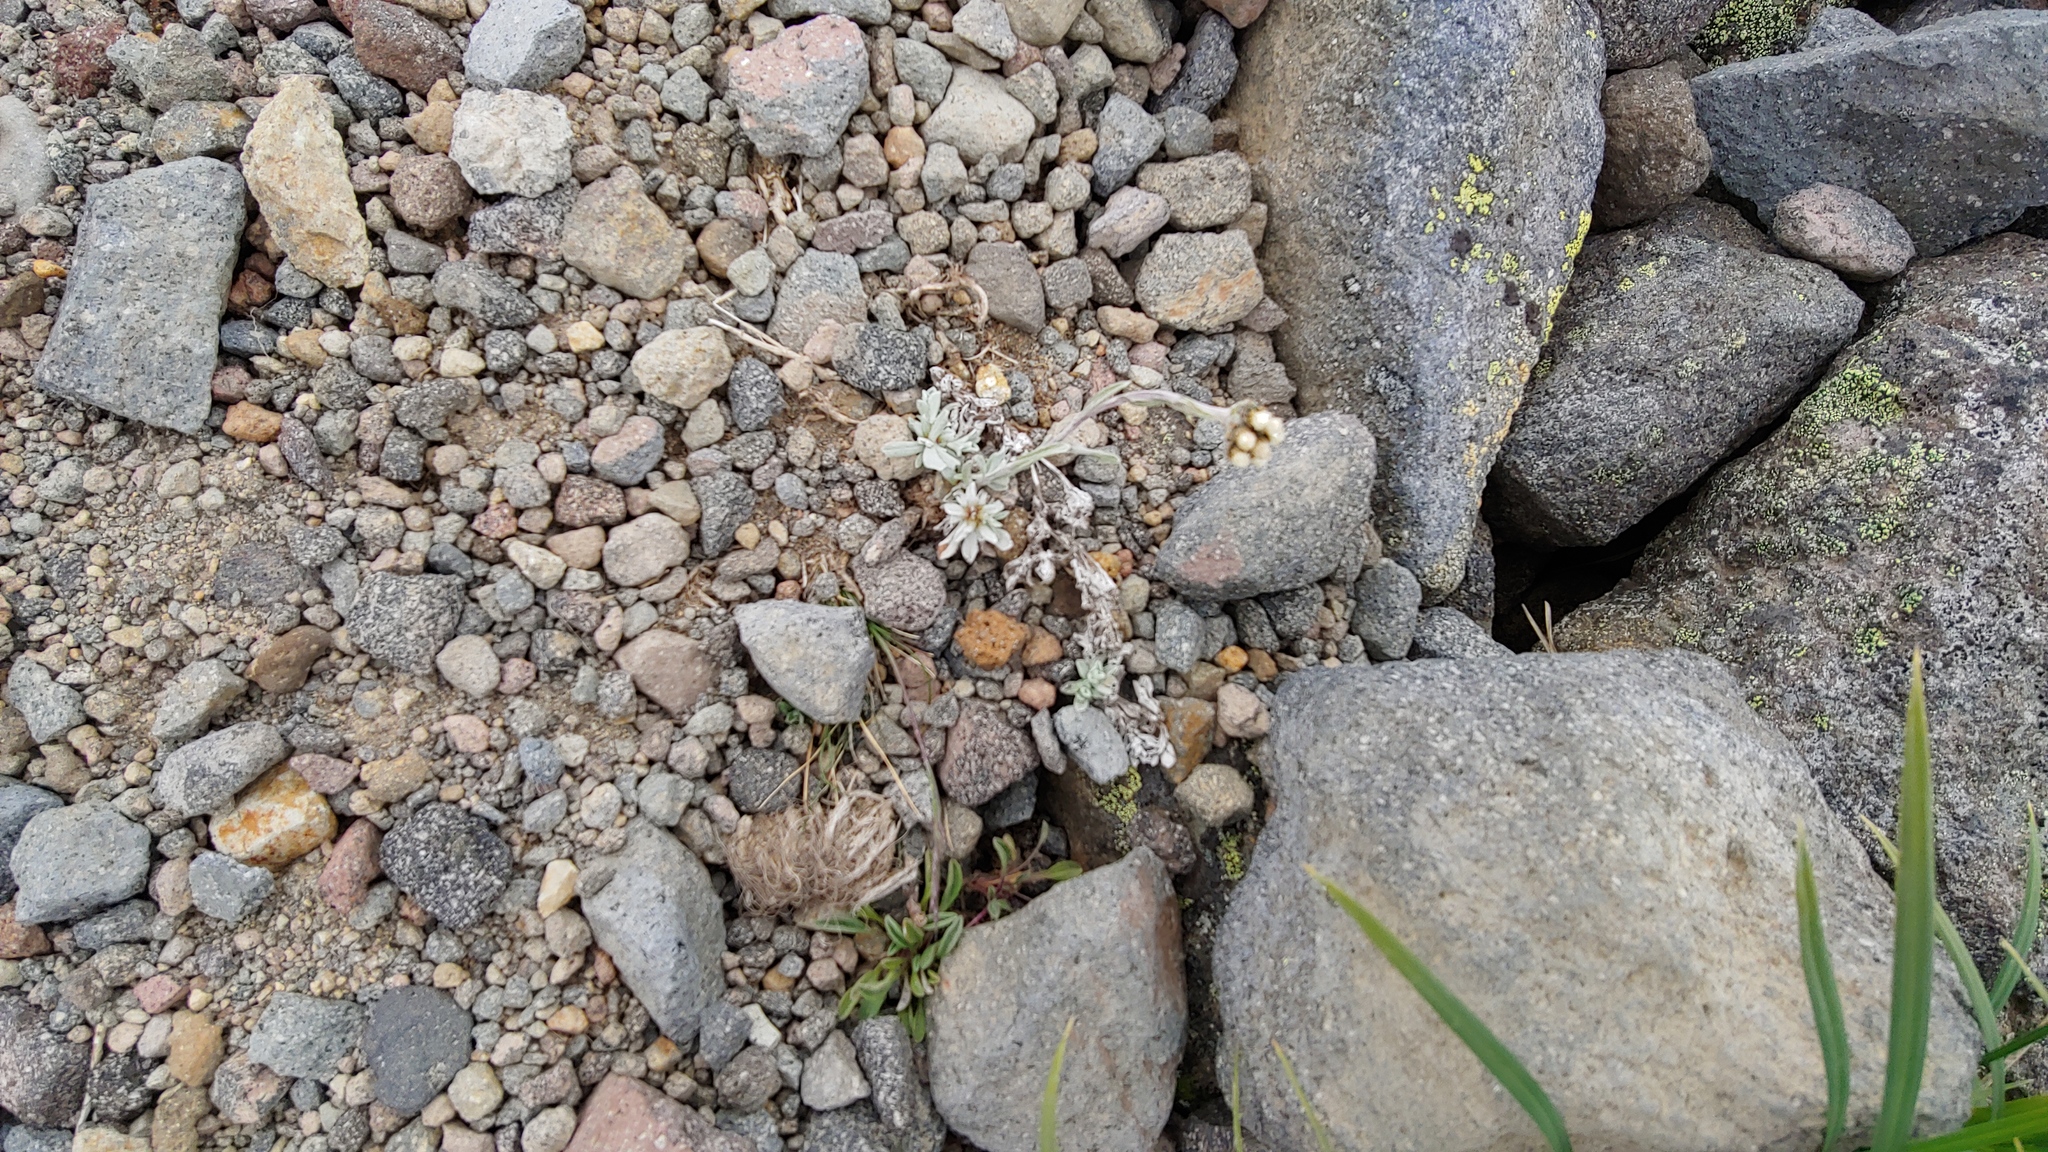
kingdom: Plantae
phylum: Tracheophyta
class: Magnoliopsida
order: Asterales
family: Asteraceae
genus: Antennaria
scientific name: Antennaria media
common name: Rocky mountain pussytoes
